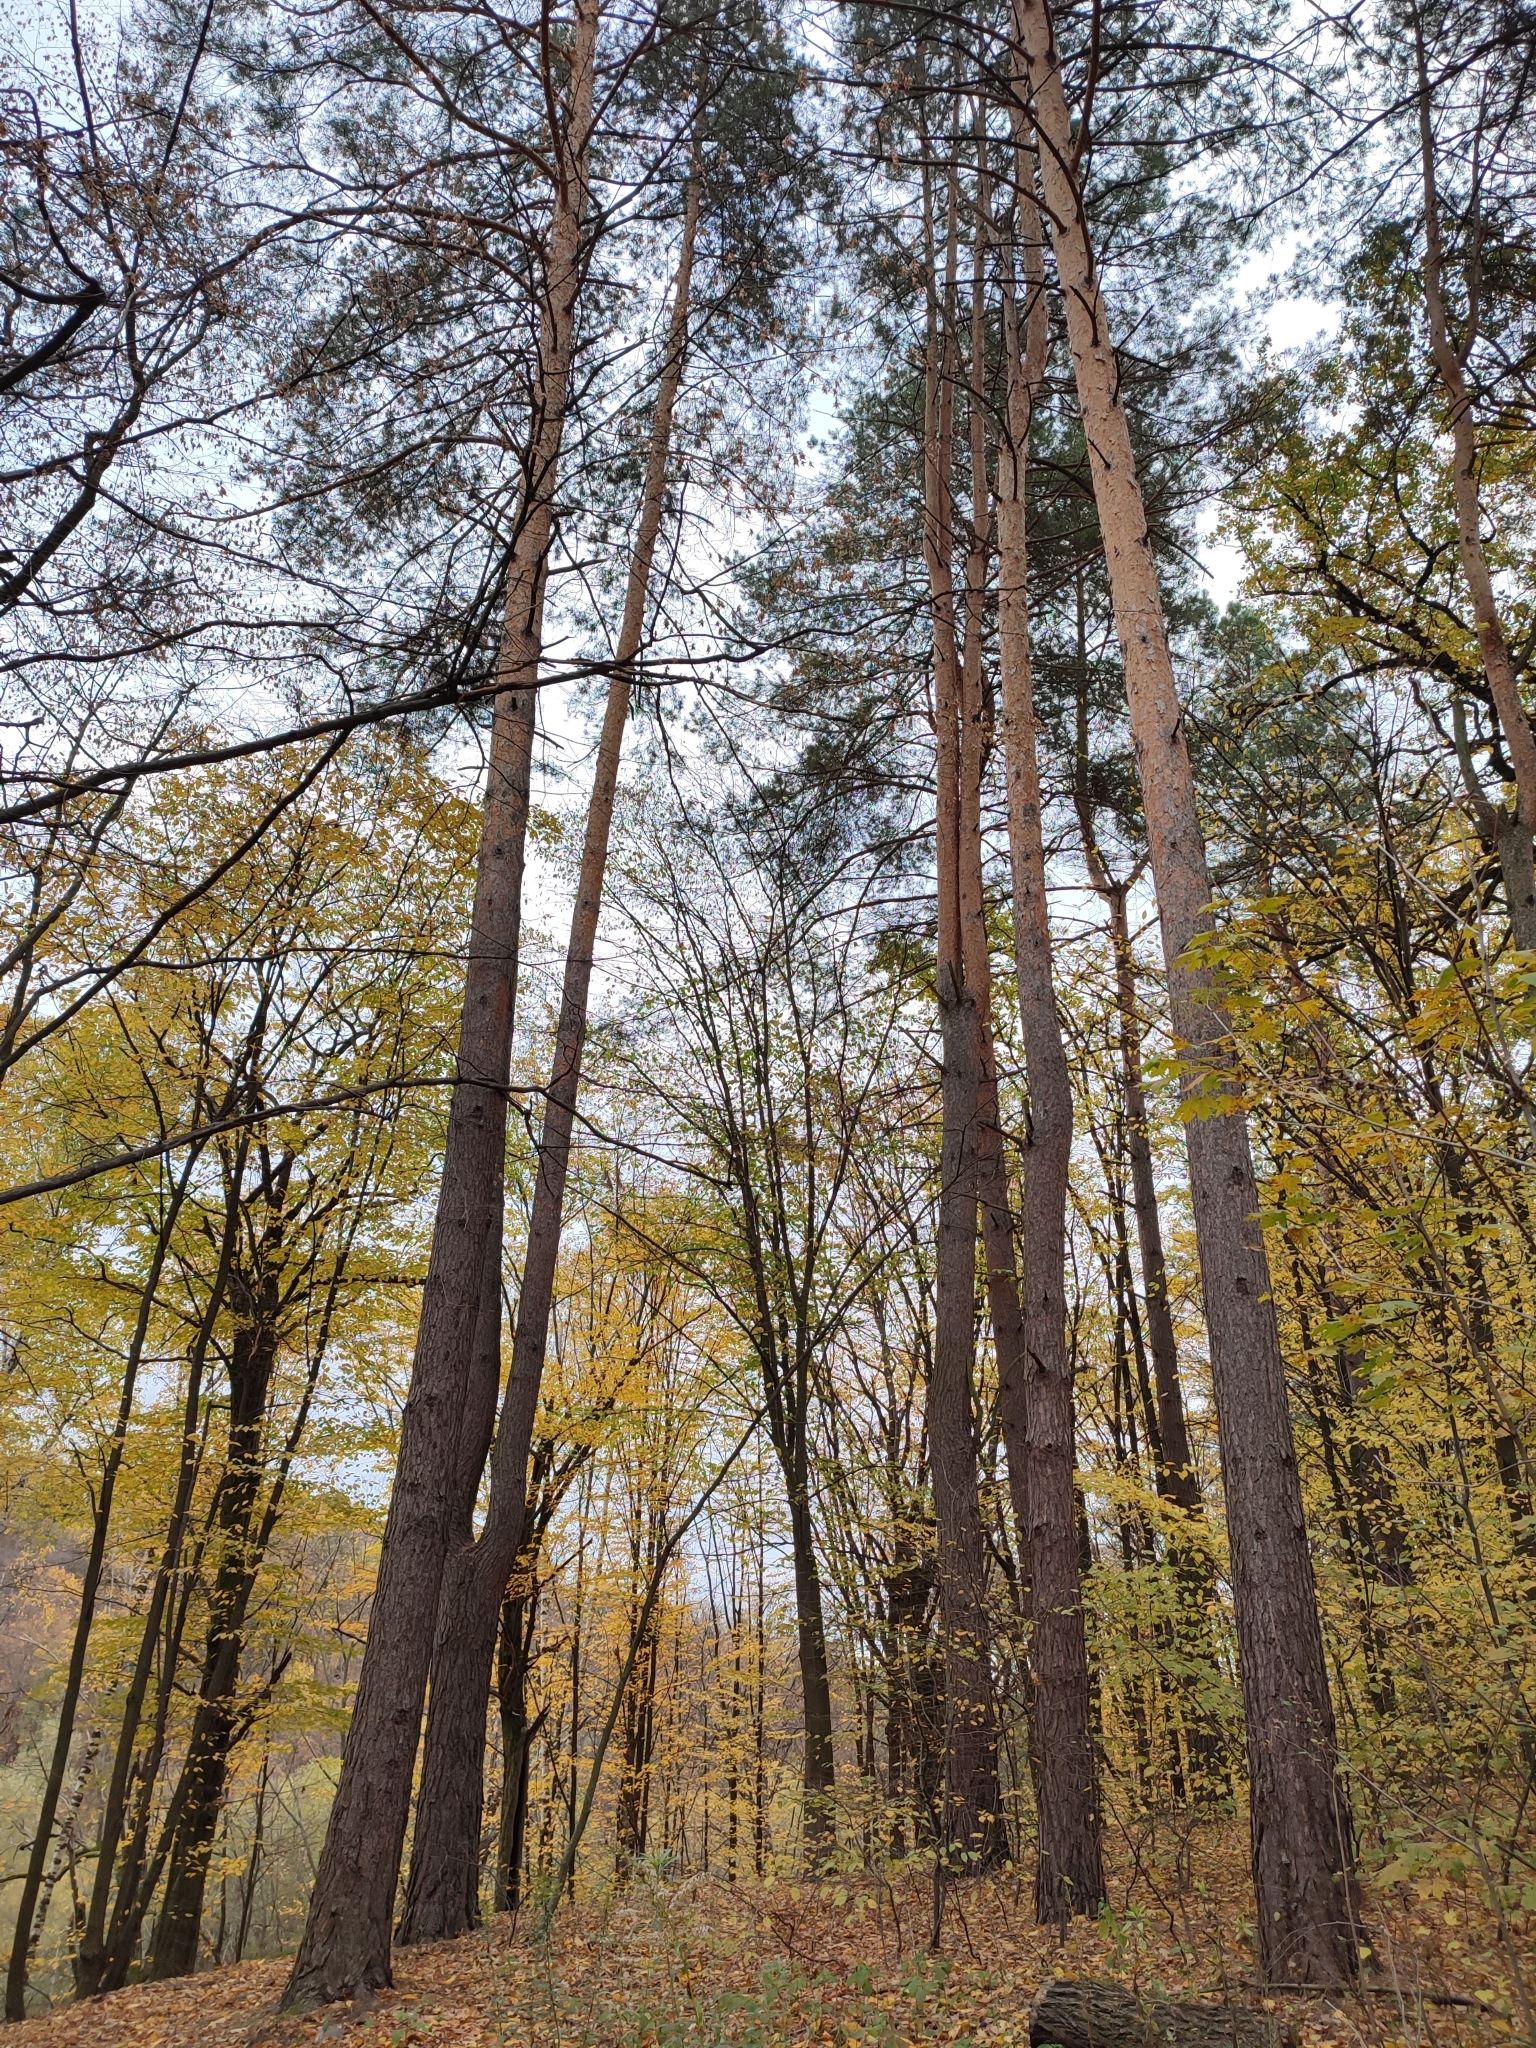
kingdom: Plantae
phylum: Tracheophyta
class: Pinopsida
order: Pinales
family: Pinaceae
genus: Pinus
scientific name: Pinus sylvestris
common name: Scots pine
